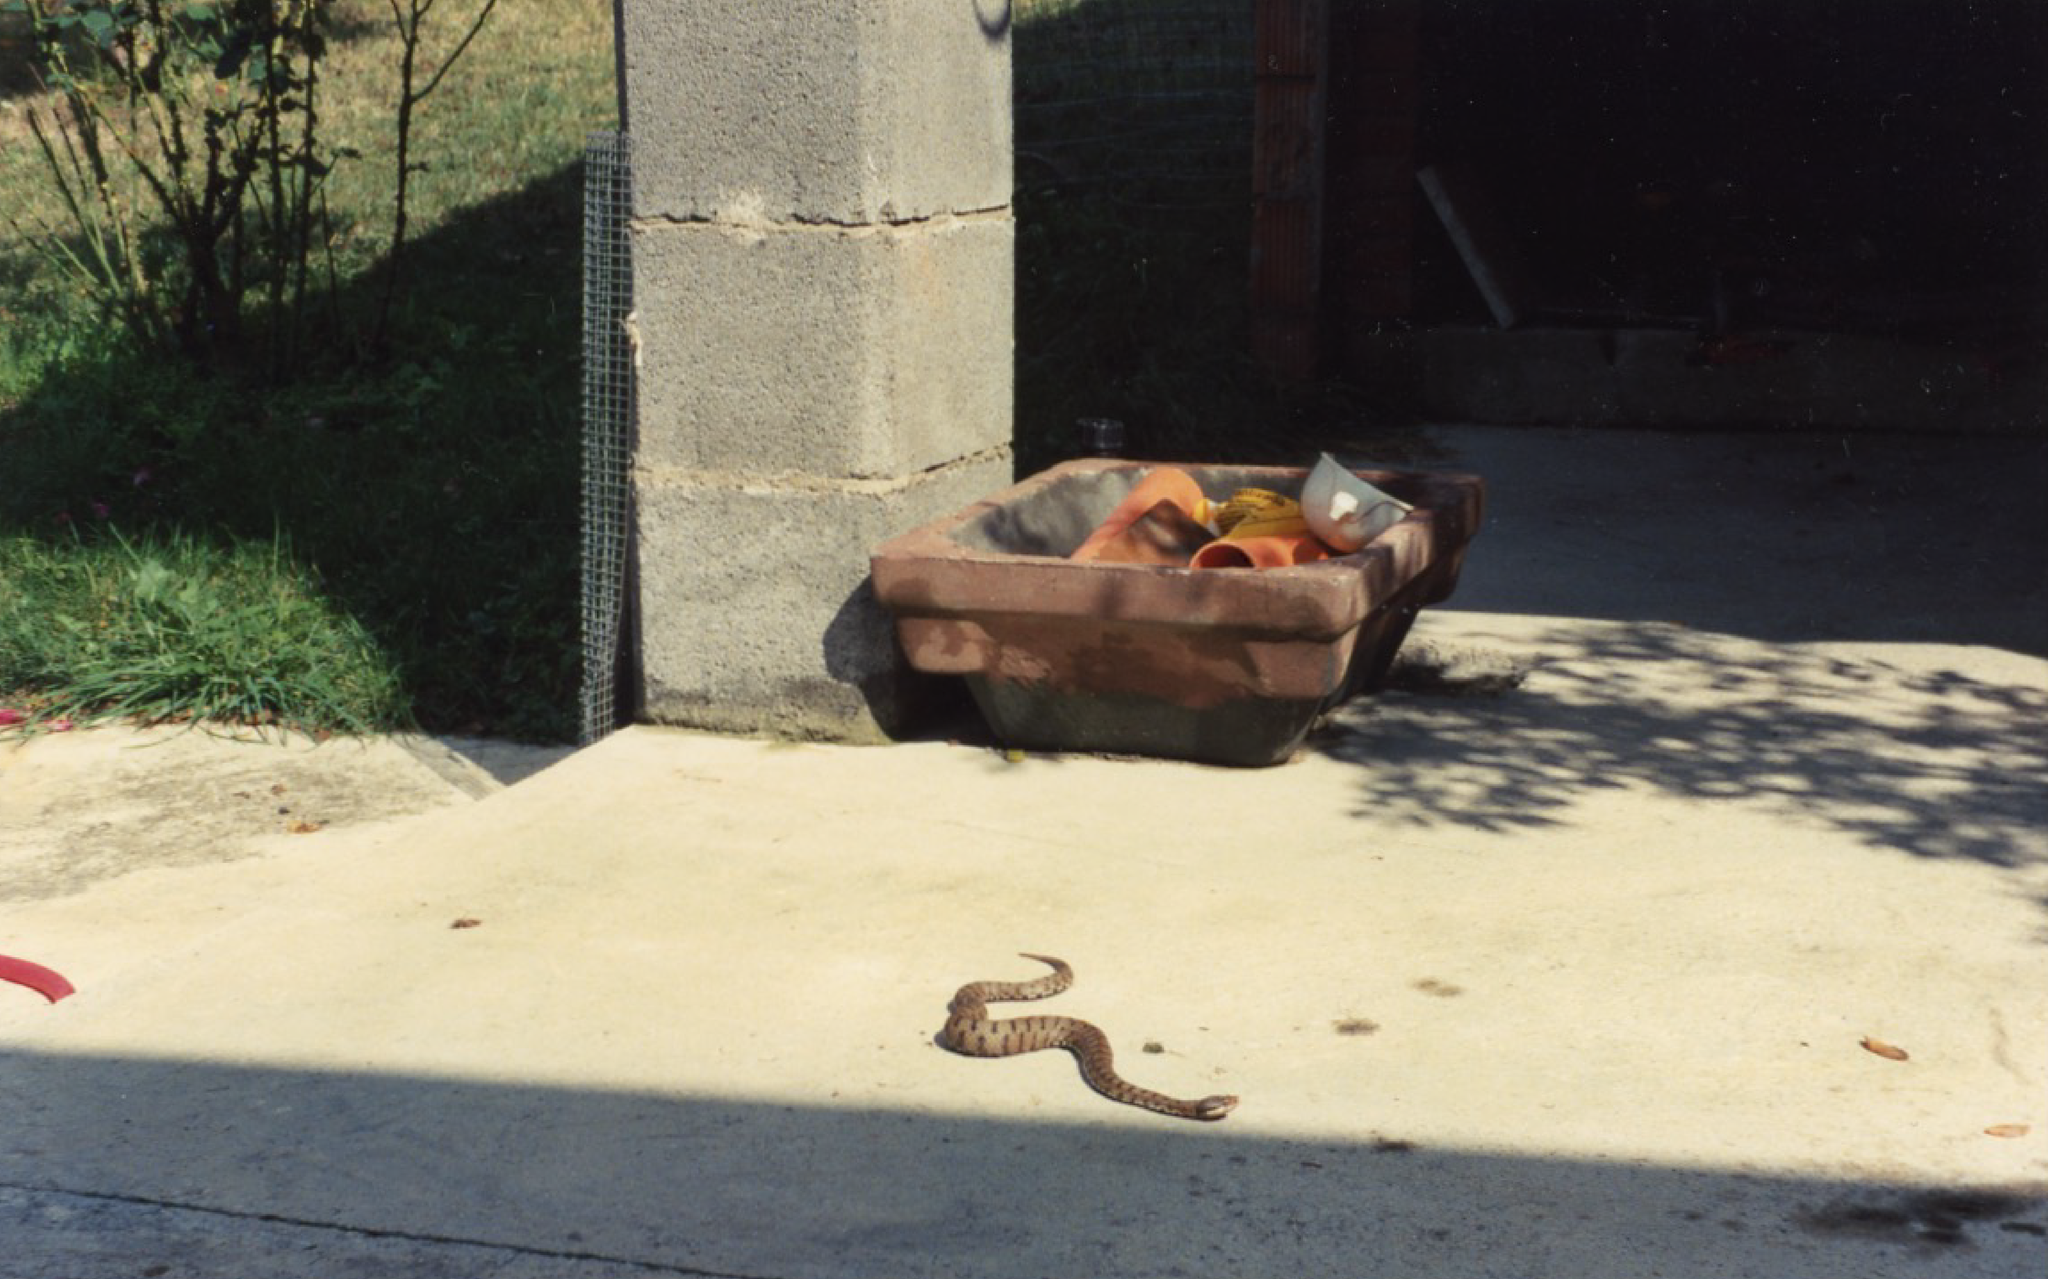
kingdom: Animalia
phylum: Chordata
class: Squamata
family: Viperidae
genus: Vipera
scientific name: Vipera aspis
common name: Asp viper
